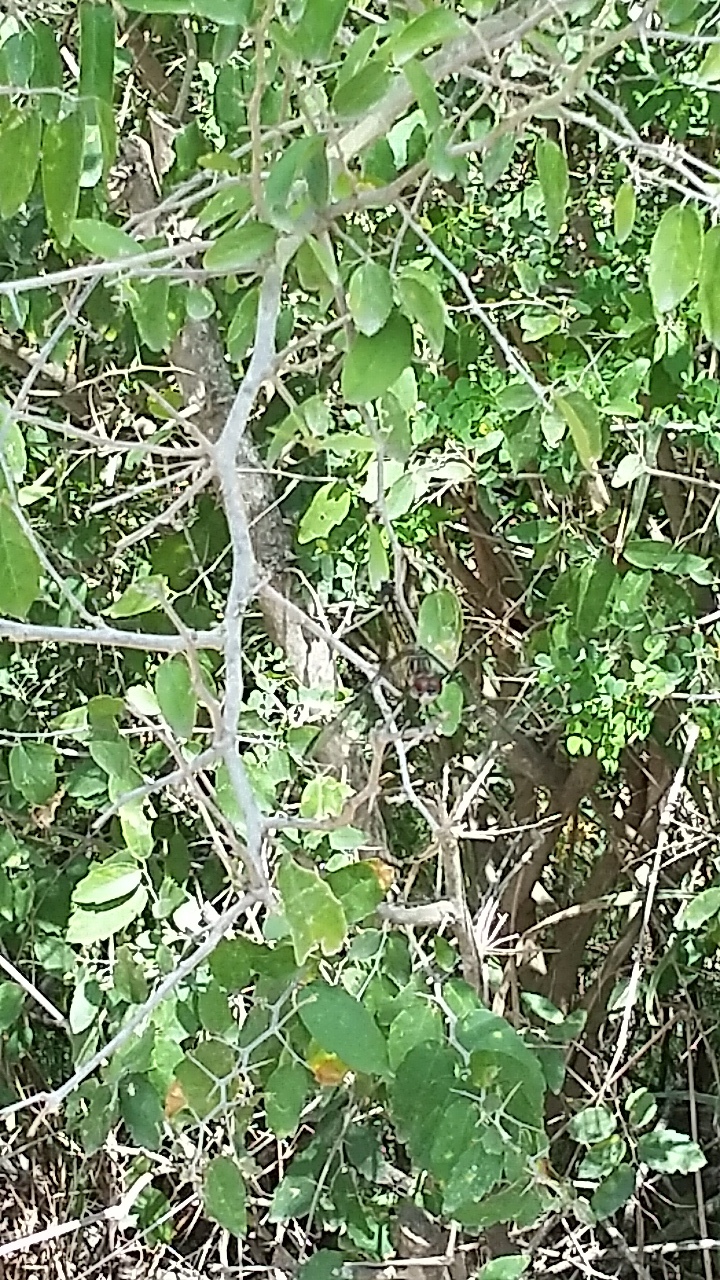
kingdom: Animalia
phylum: Arthropoda
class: Insecta
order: Odonata
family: Libellulidae
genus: Pachydiplax
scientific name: Pachydiplax longipennis
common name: Blue dasher
